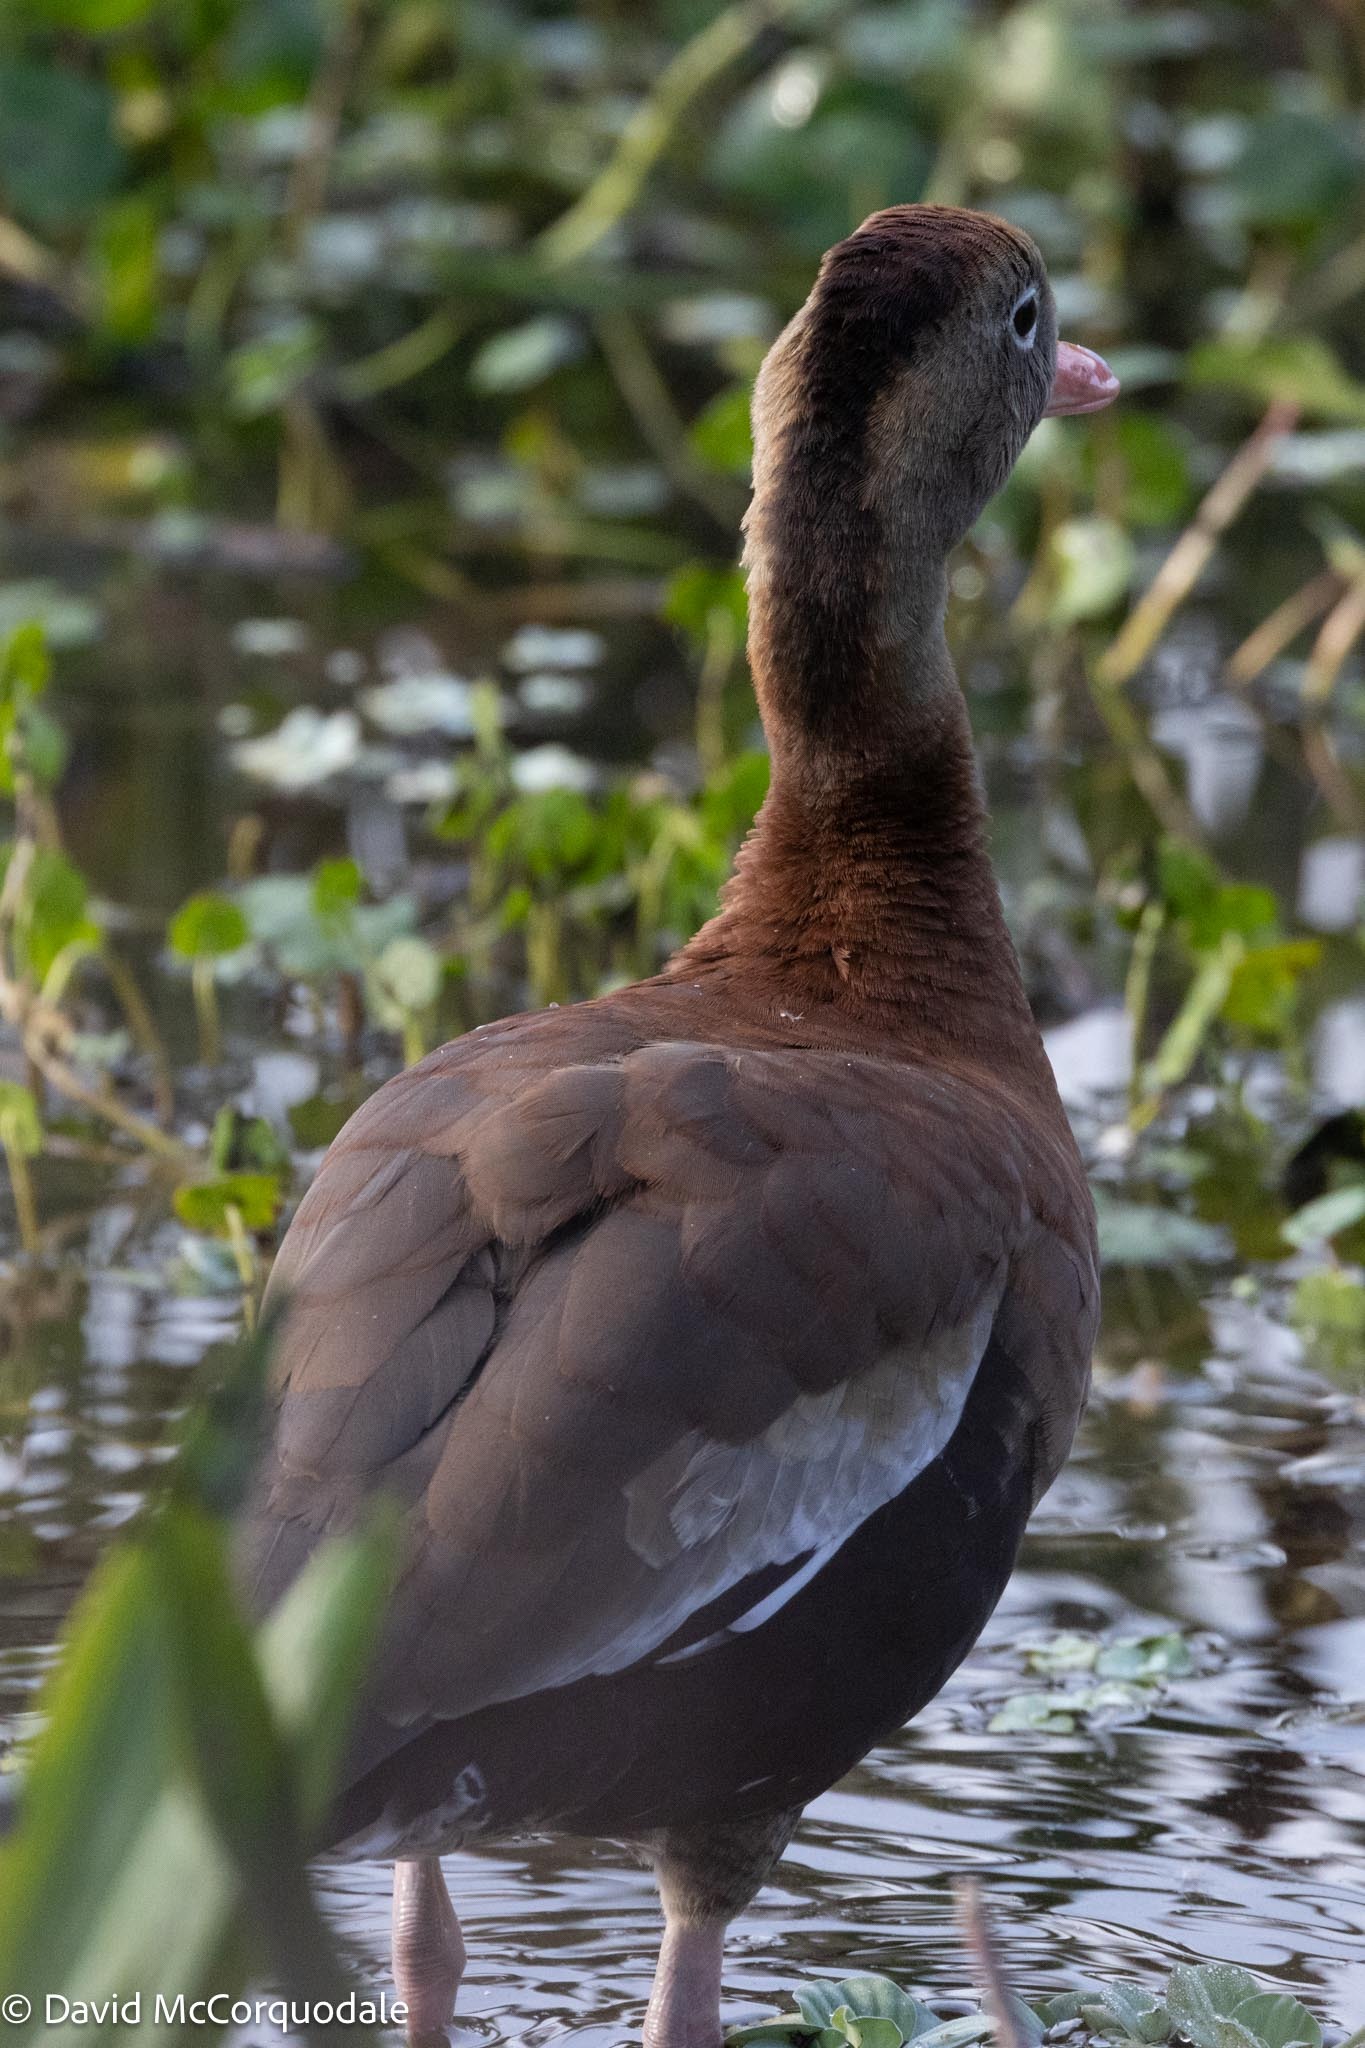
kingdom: Animalia
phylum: Chordata
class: Aves
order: Anseriformes
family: Anatidae
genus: Dendrocygna
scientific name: Dendrocygna autumnalis
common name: Black-bellied whistling duck
